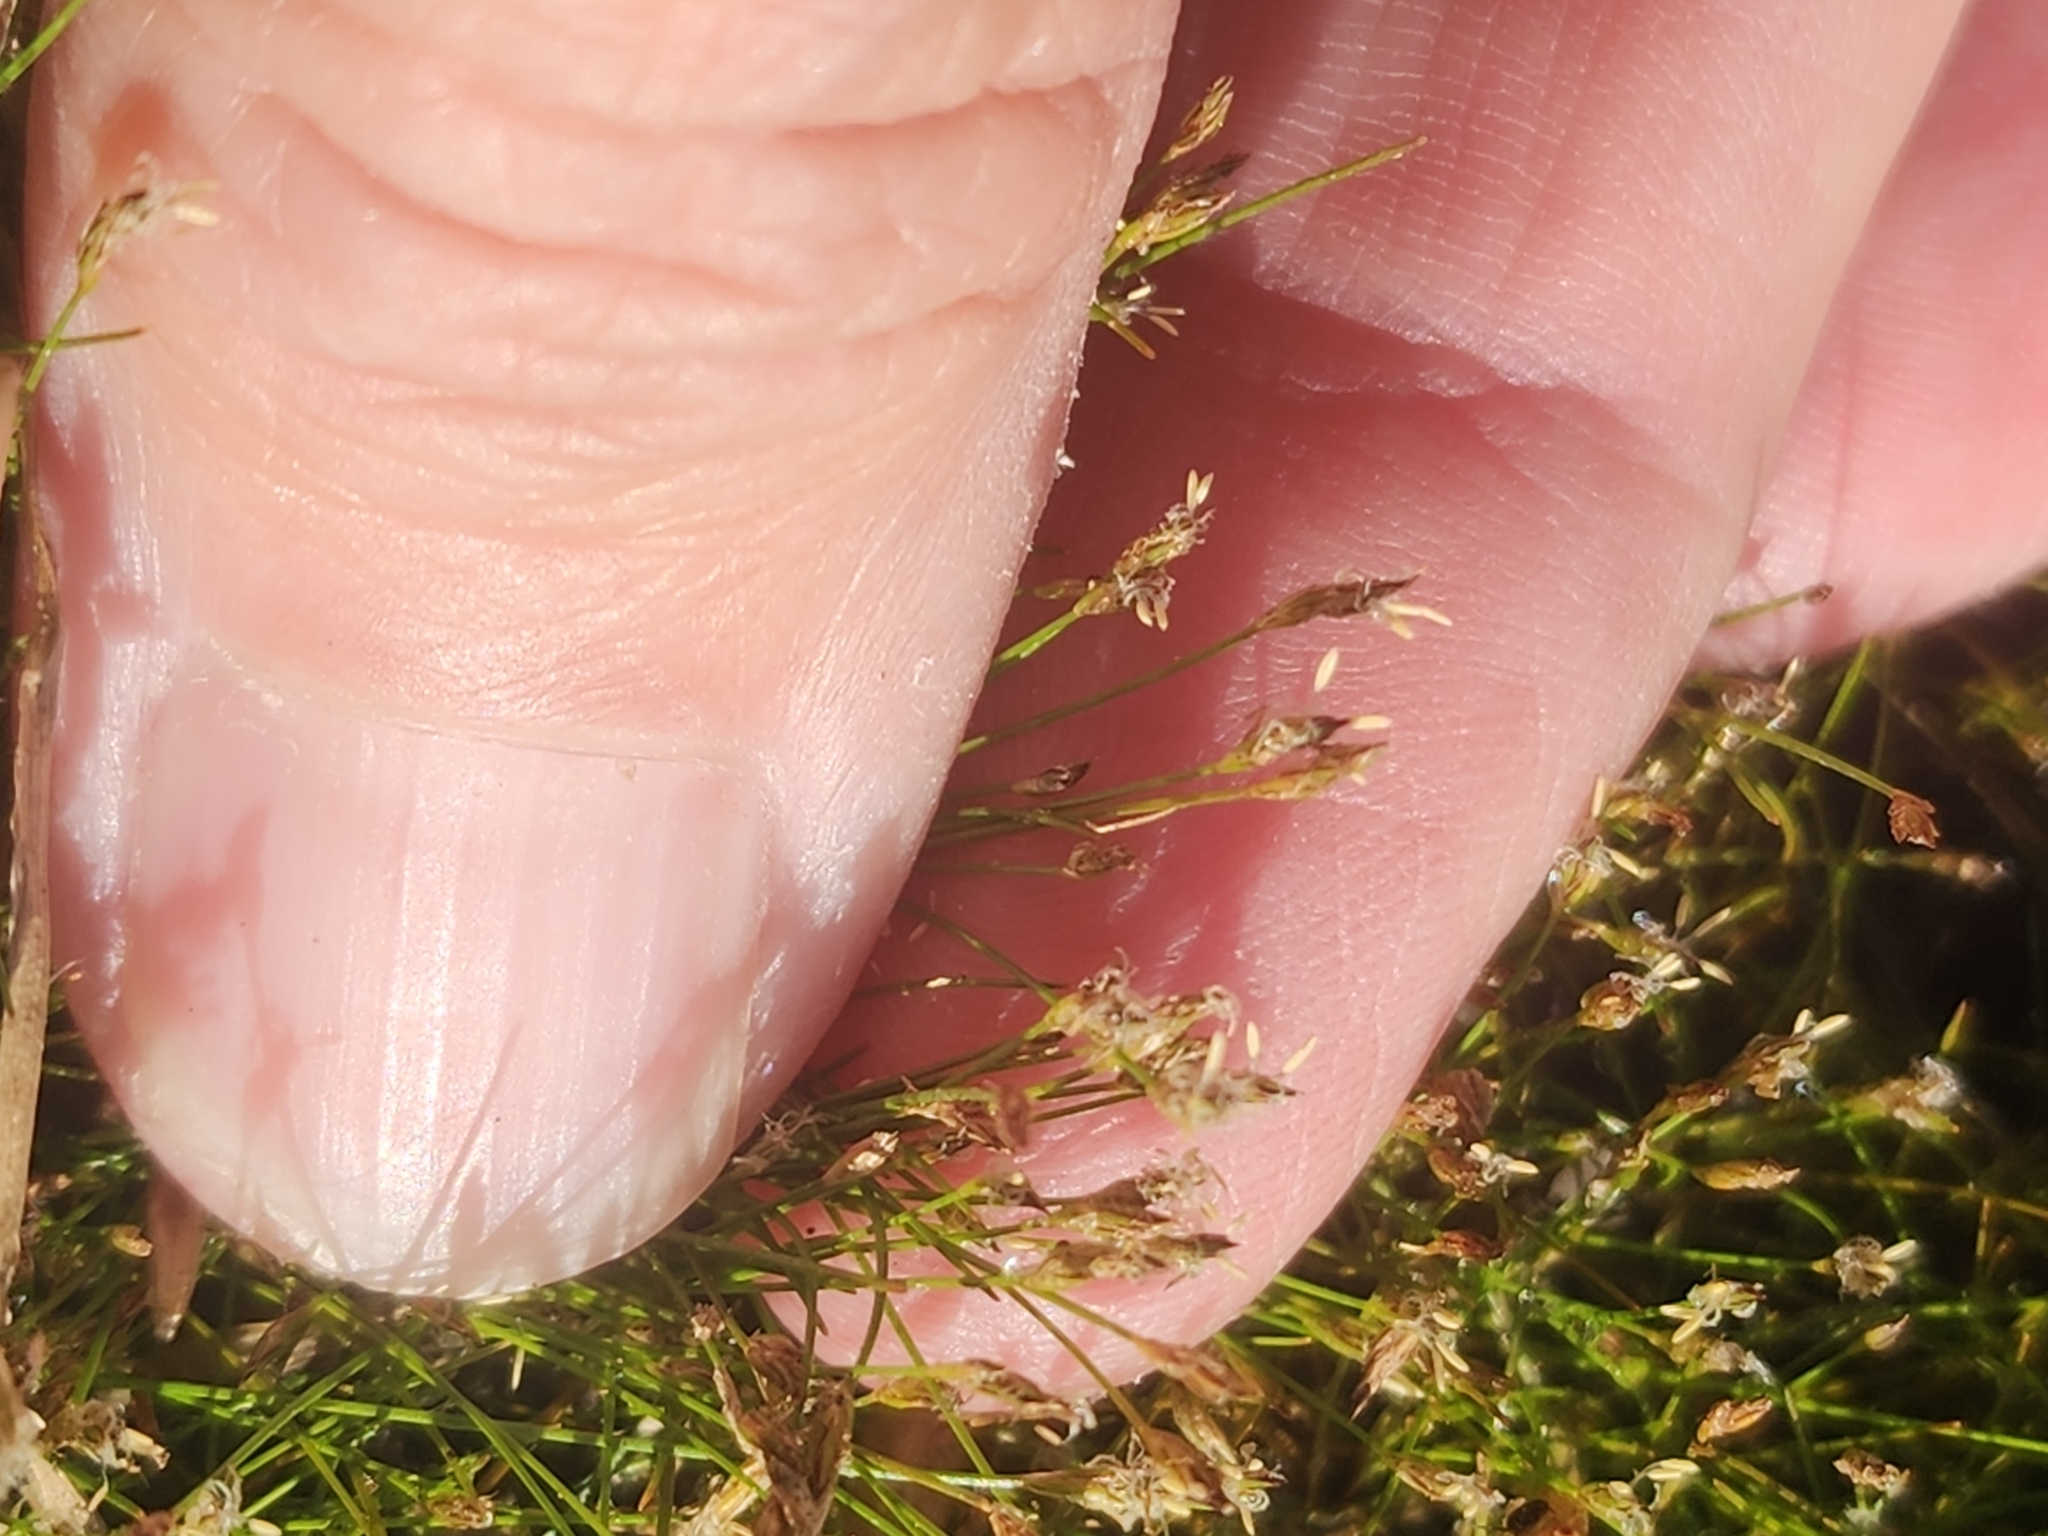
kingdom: Plantae
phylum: Tracheophyta
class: Liliopsida
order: Poales
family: Cyperaceae
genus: Eleocharis
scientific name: Eleocharis acicularis
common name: Needle spike-rush
